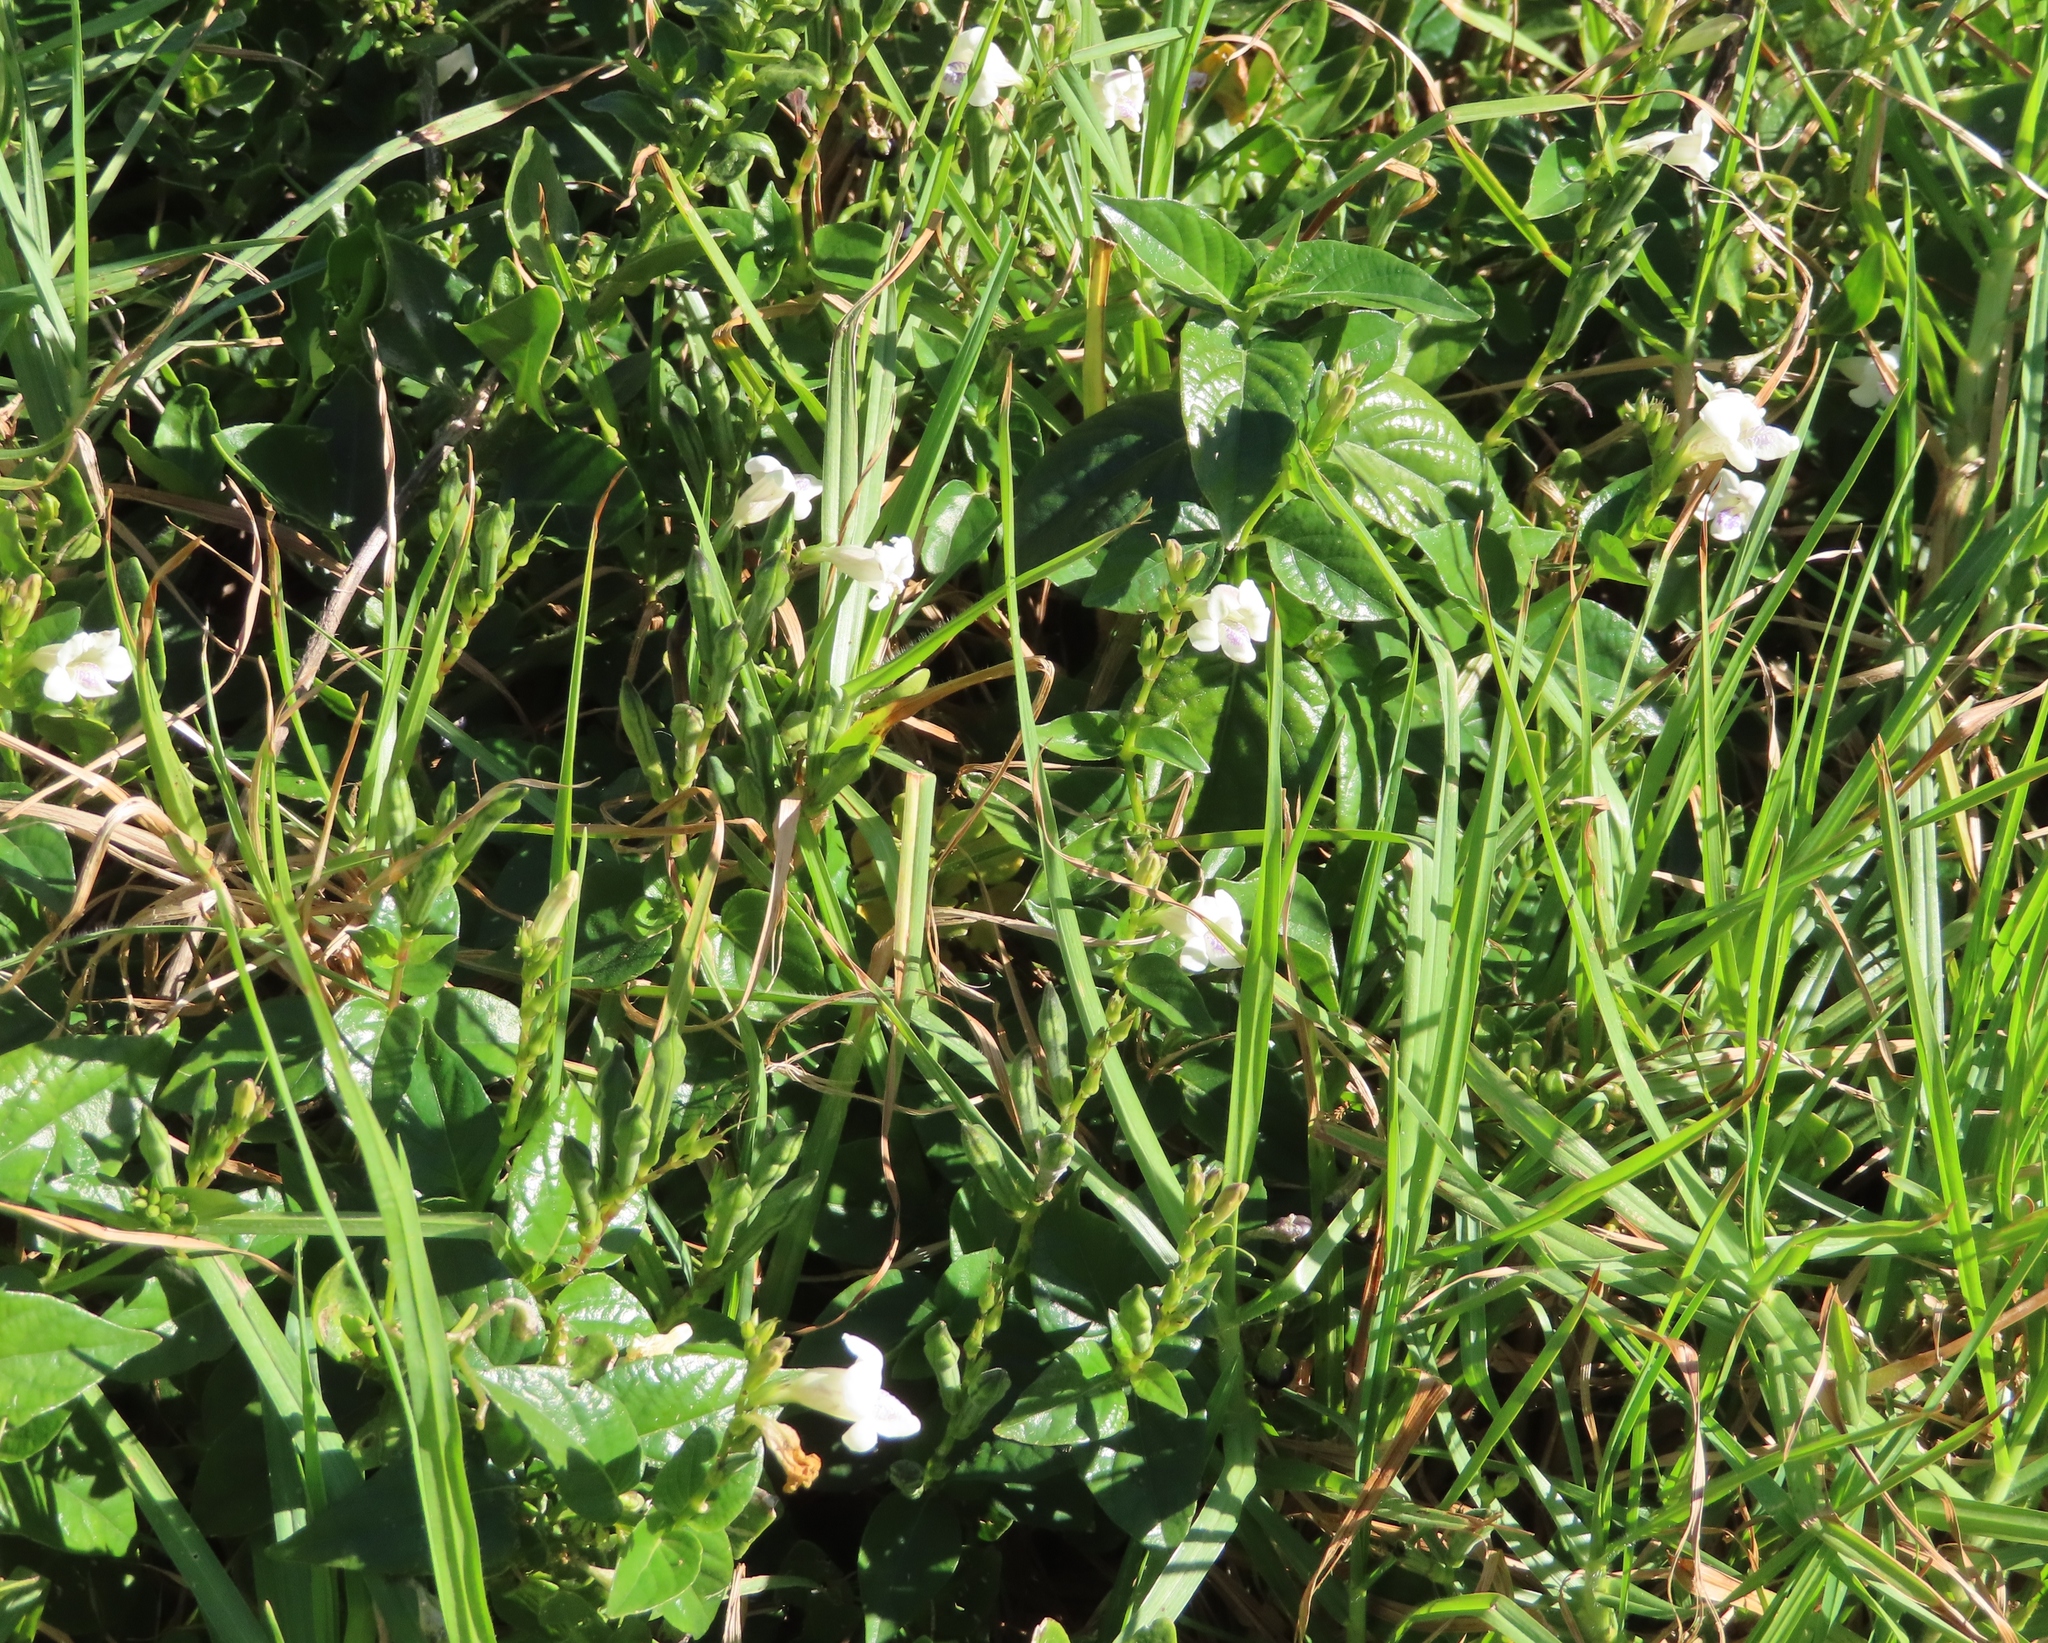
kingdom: Plantae
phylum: Tracheophyta
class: Magnoliopsida
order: Lamiales
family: Acanthaceae
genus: Asystasia
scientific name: Asystasia intrusa
